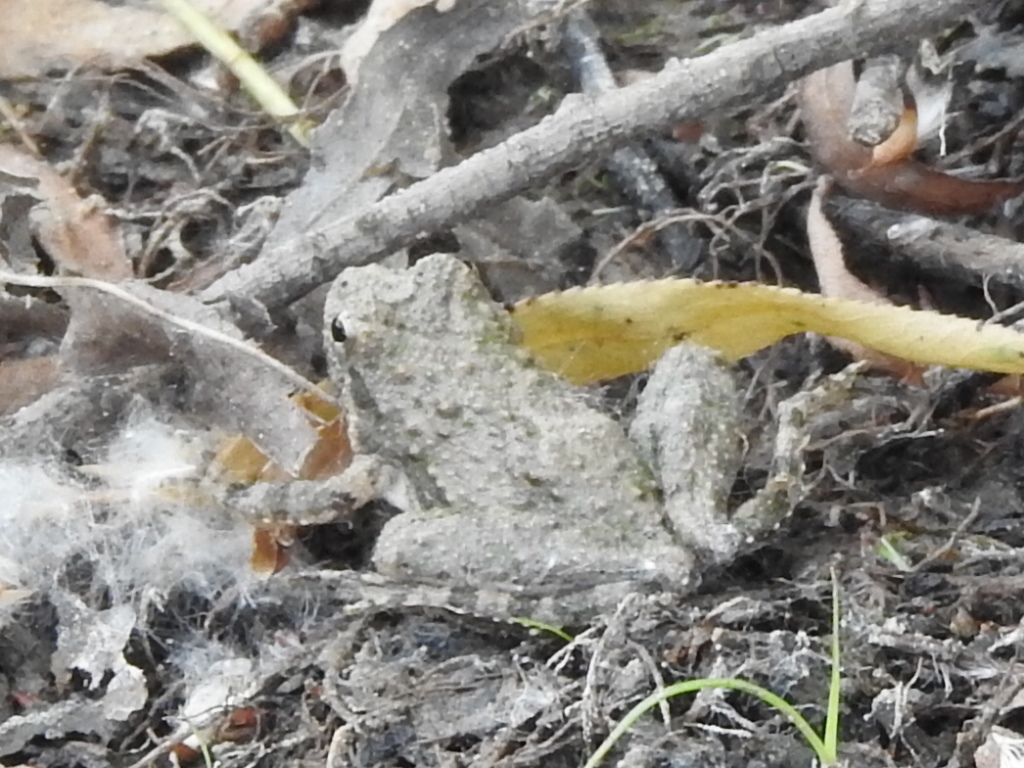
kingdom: Animalia
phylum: Chordata
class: Amphibia
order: Anura
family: Hylidae
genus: Acris
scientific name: Acris blanchardi
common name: Blanchard's cricket frog
